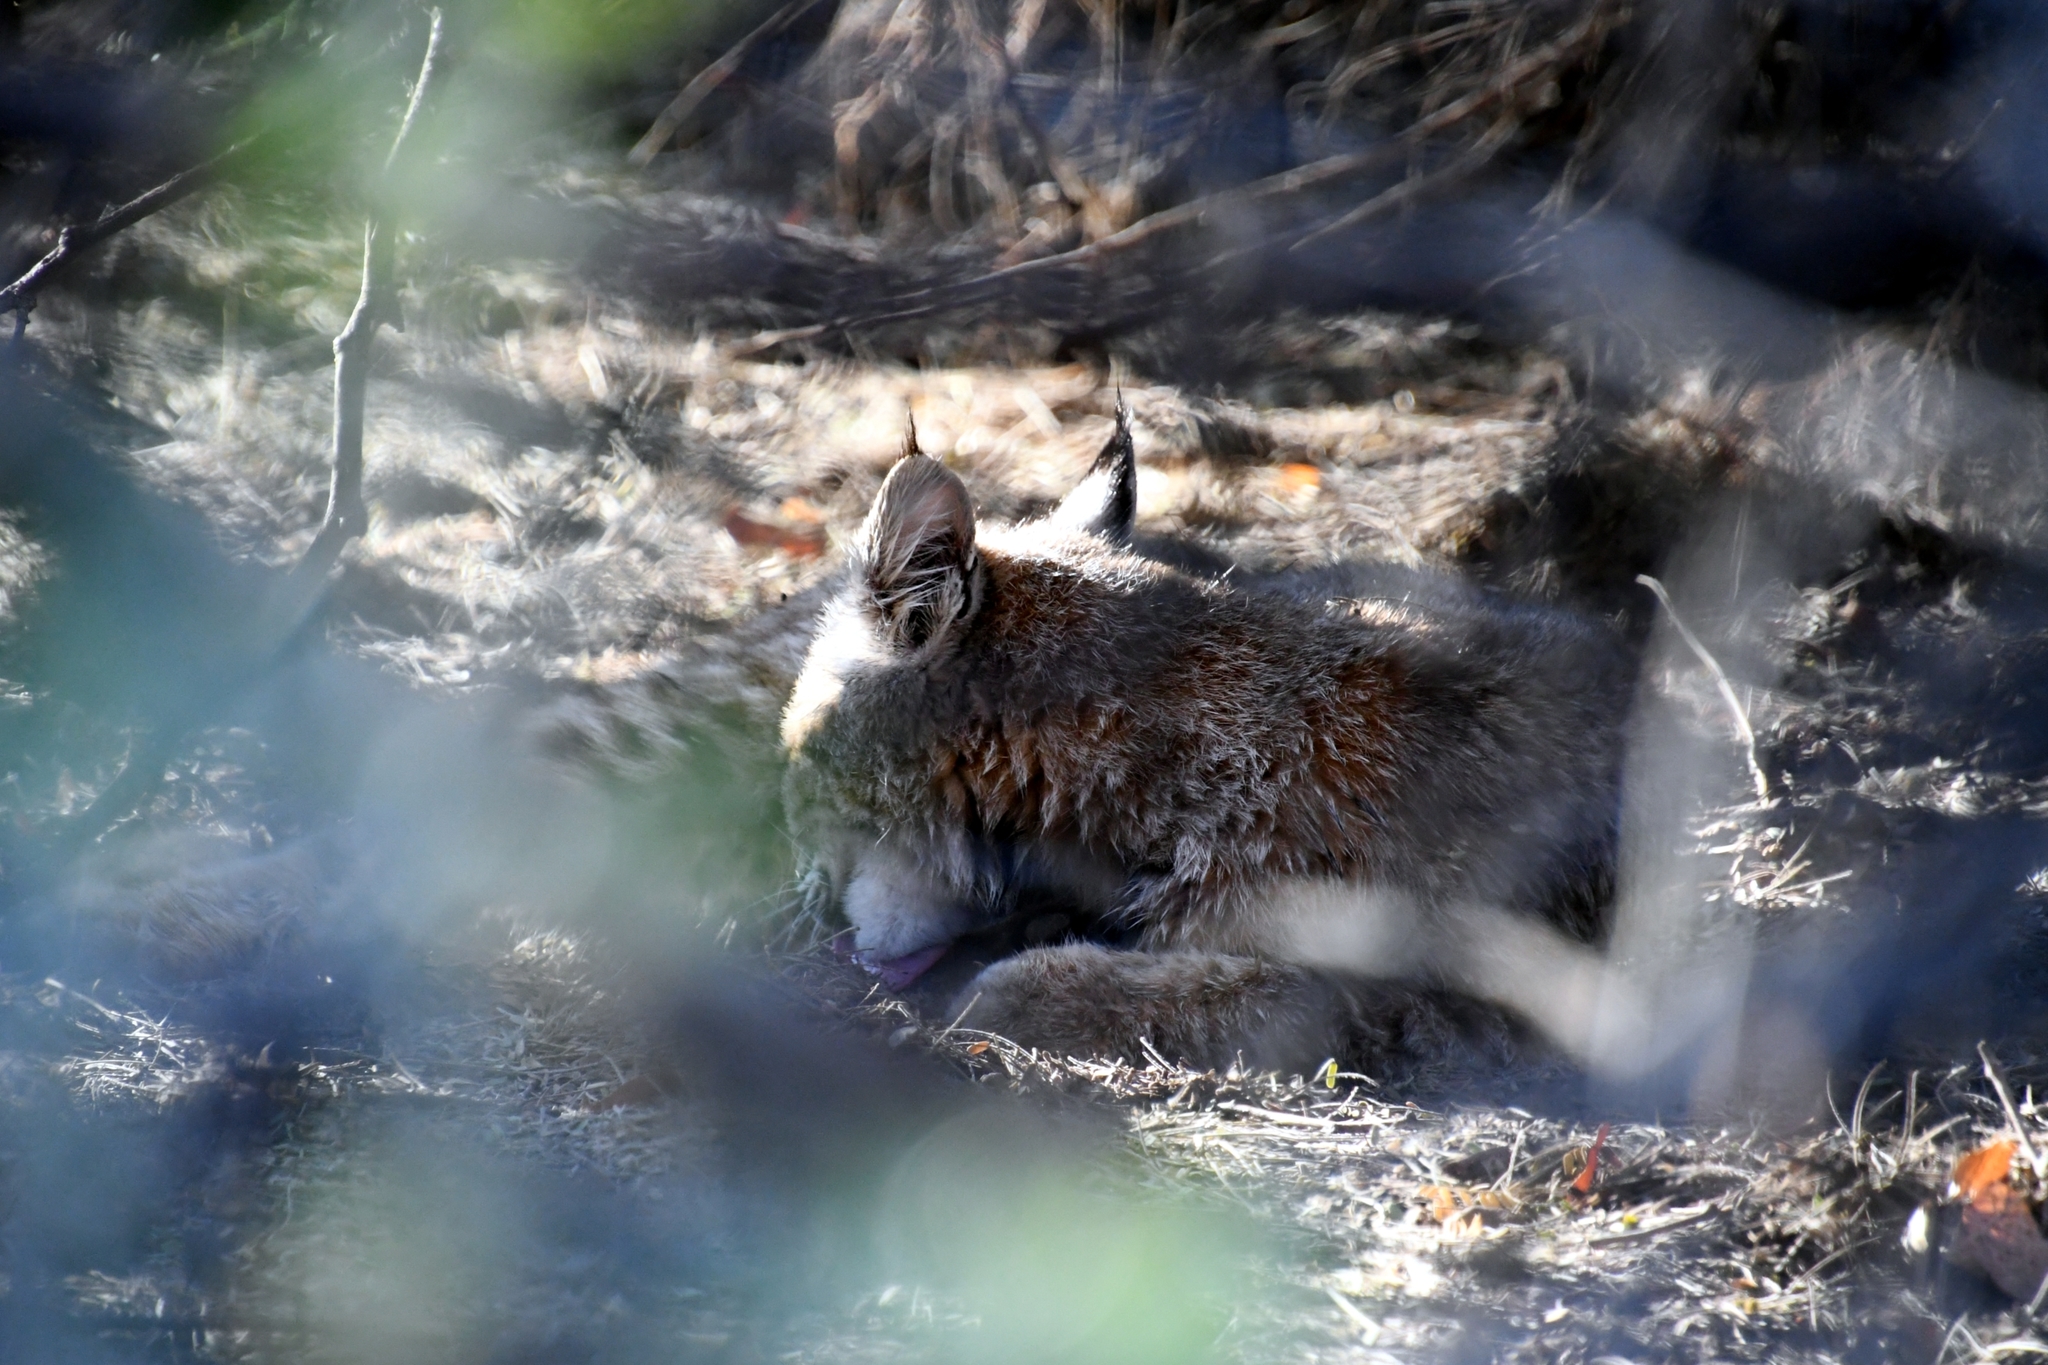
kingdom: Animalia
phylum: Chordata
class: Mammalia
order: Carnivora
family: Felidae
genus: Lynx
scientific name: Lynx rufus
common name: Bobcat
